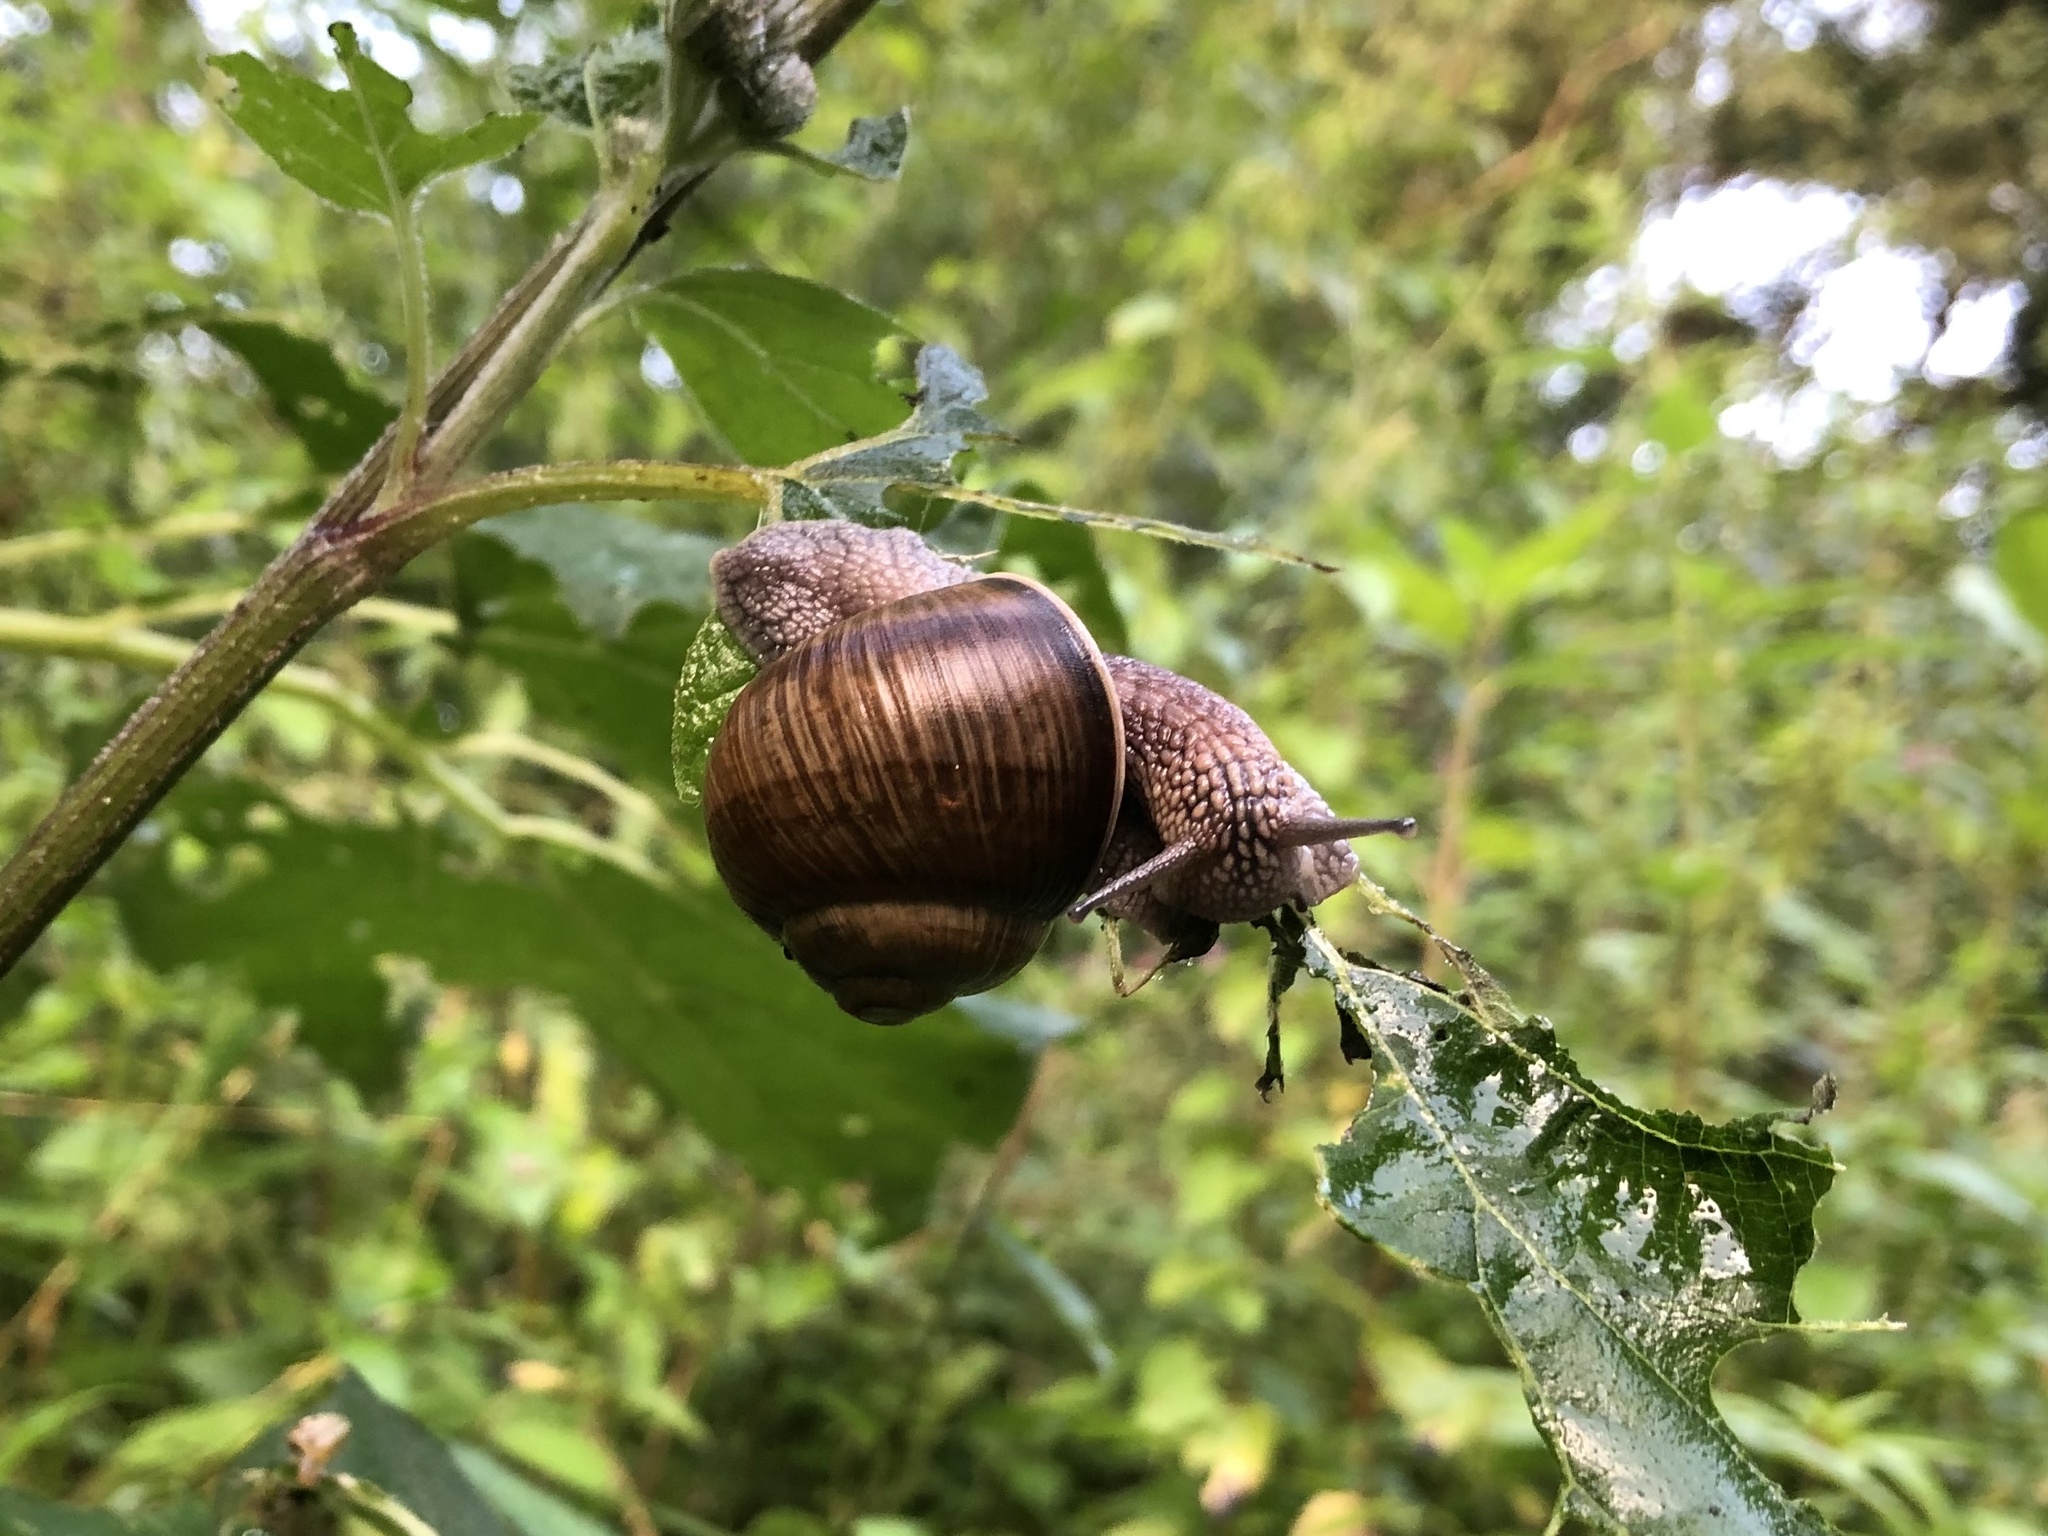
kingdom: Animalia
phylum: Mollusca
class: Gastropoda
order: Stylommatophora
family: Helicidae
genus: Helix
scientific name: Helix pomatia
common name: Roman snail
